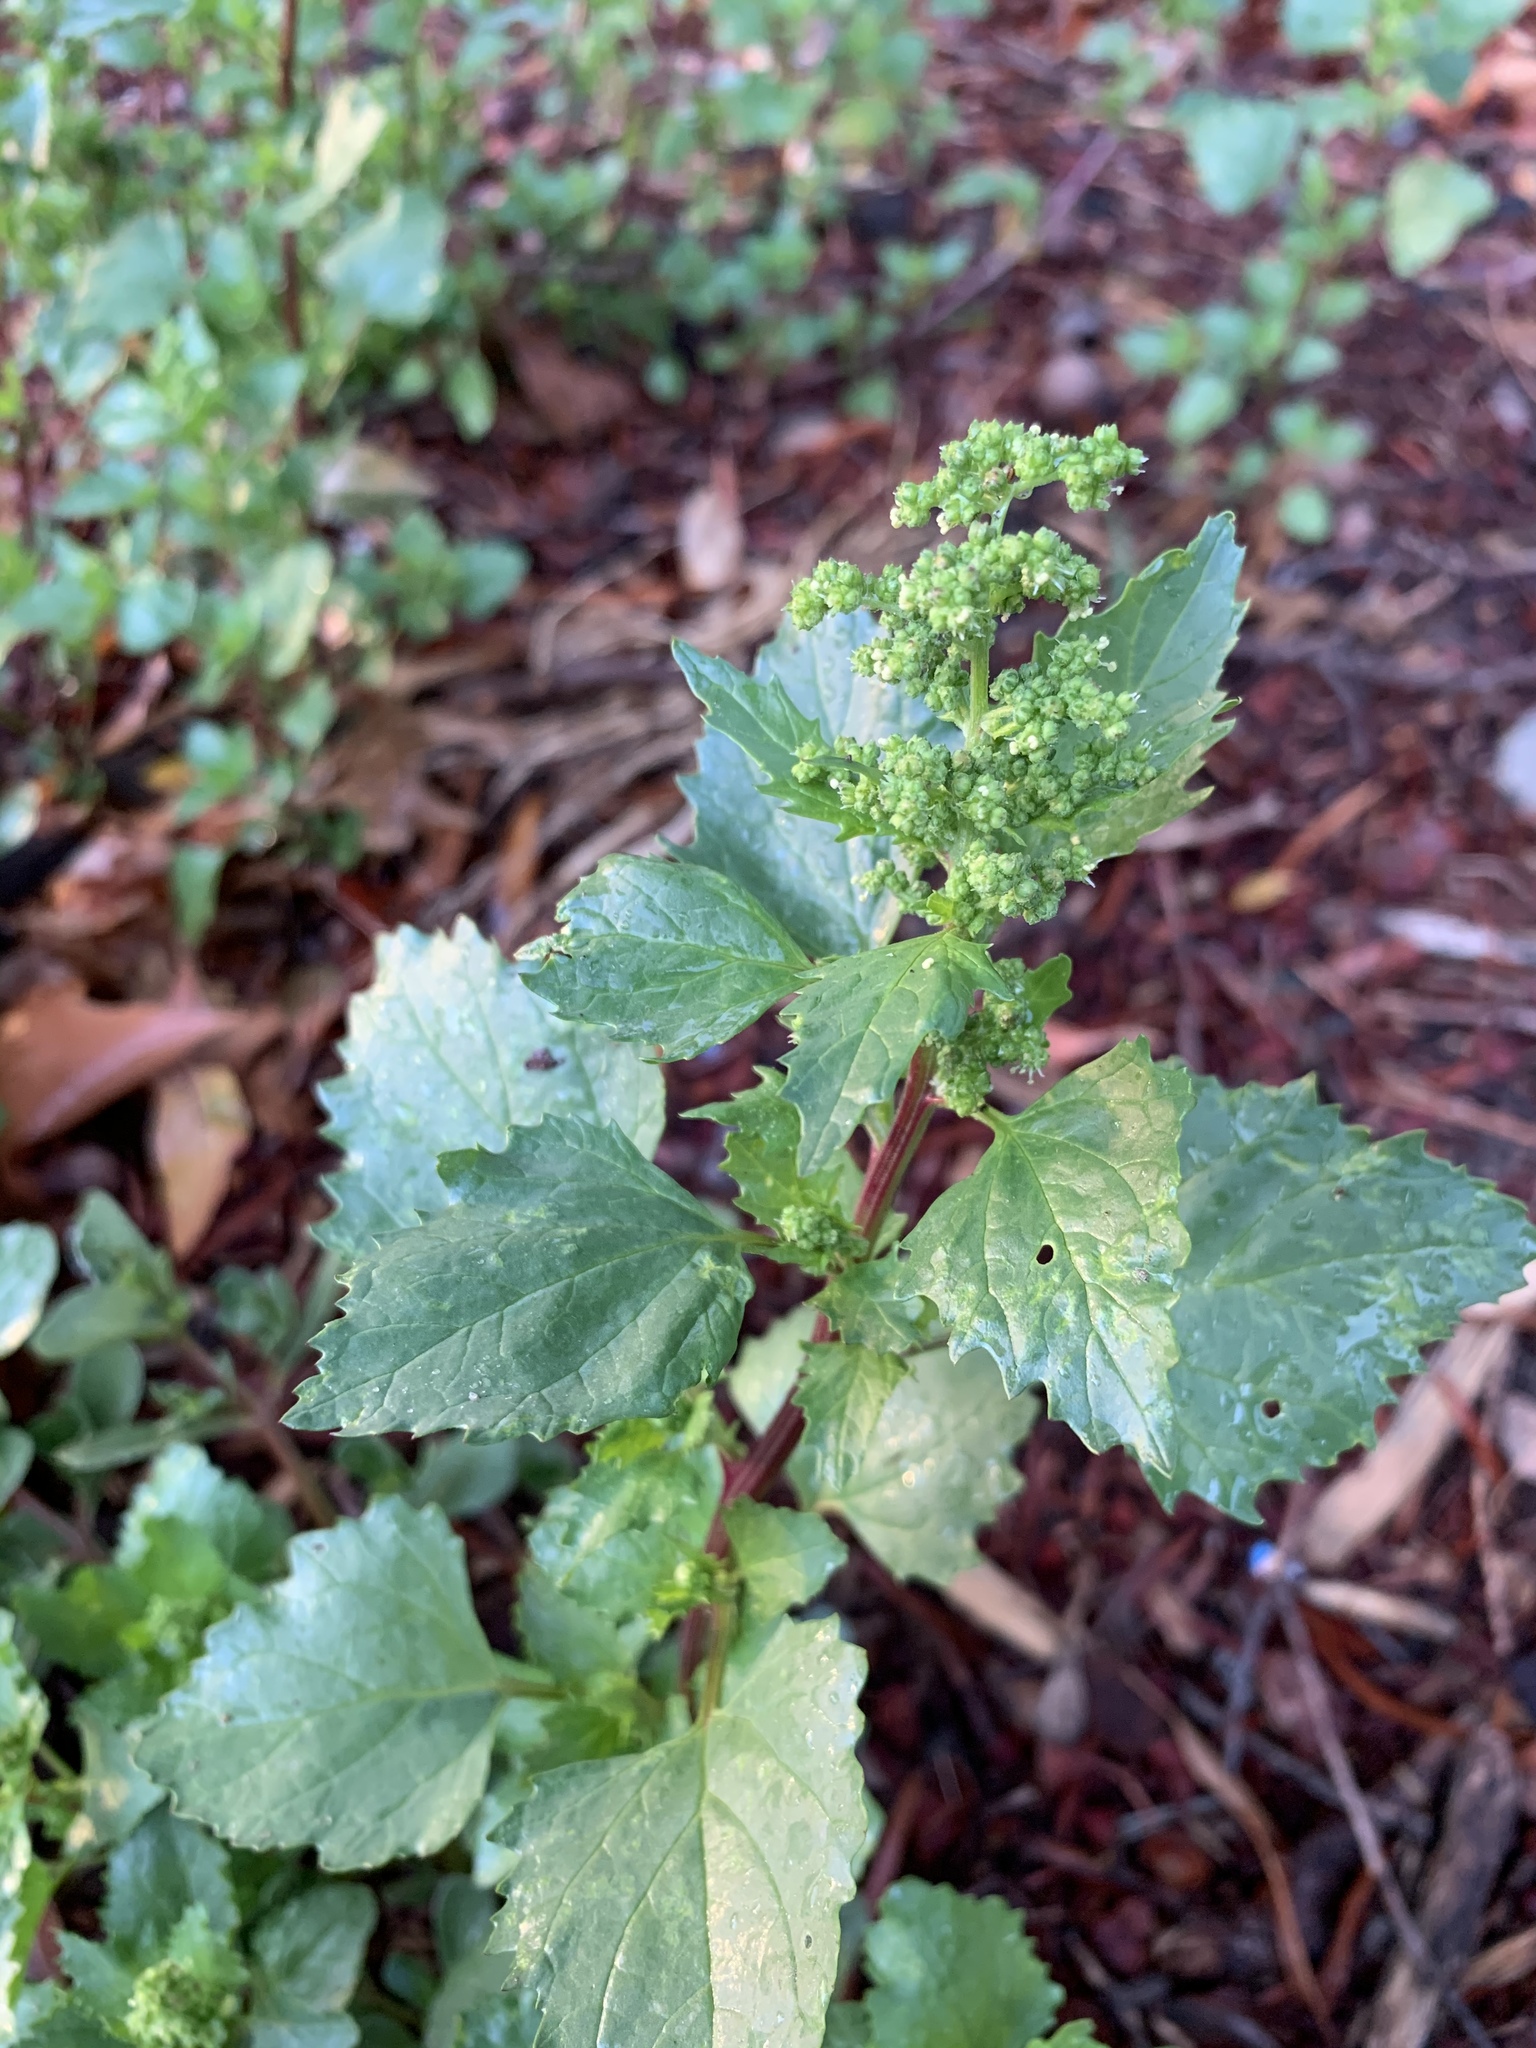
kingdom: Plantae
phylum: Tracheophyta
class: Magnoliopsida
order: Caryophyllales
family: Amaranthaceae
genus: Chenopodiastrum
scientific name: Chenopodiastrum murale
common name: Sowbane
